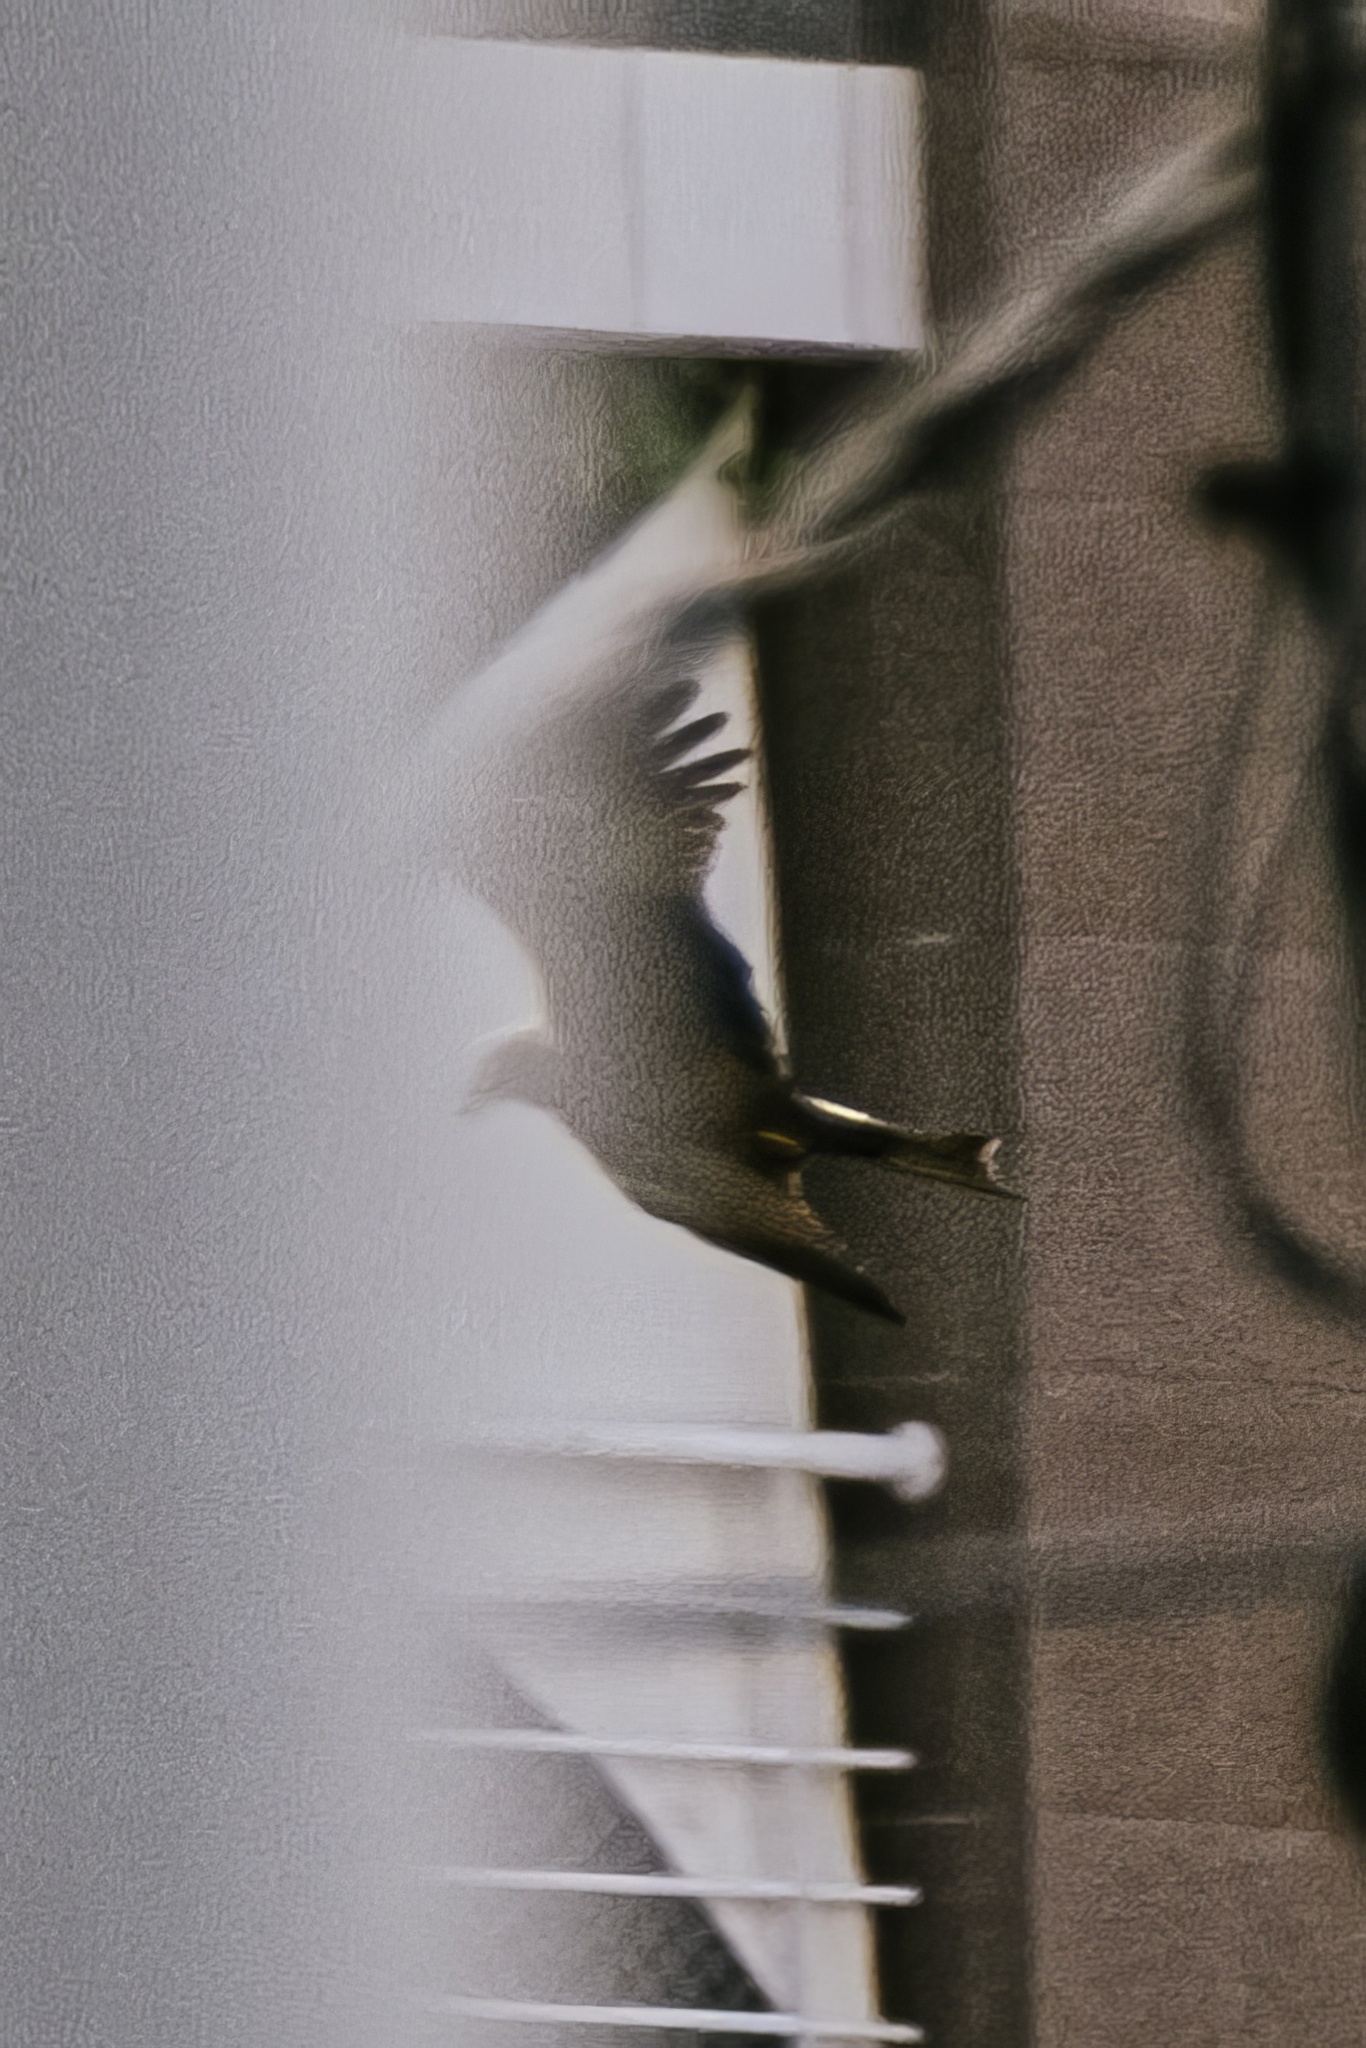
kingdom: Animalia
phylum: Chordata
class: Aves
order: Accipitriformes
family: Accipitridae
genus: Milvus
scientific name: Milvus migrans
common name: Black kite
